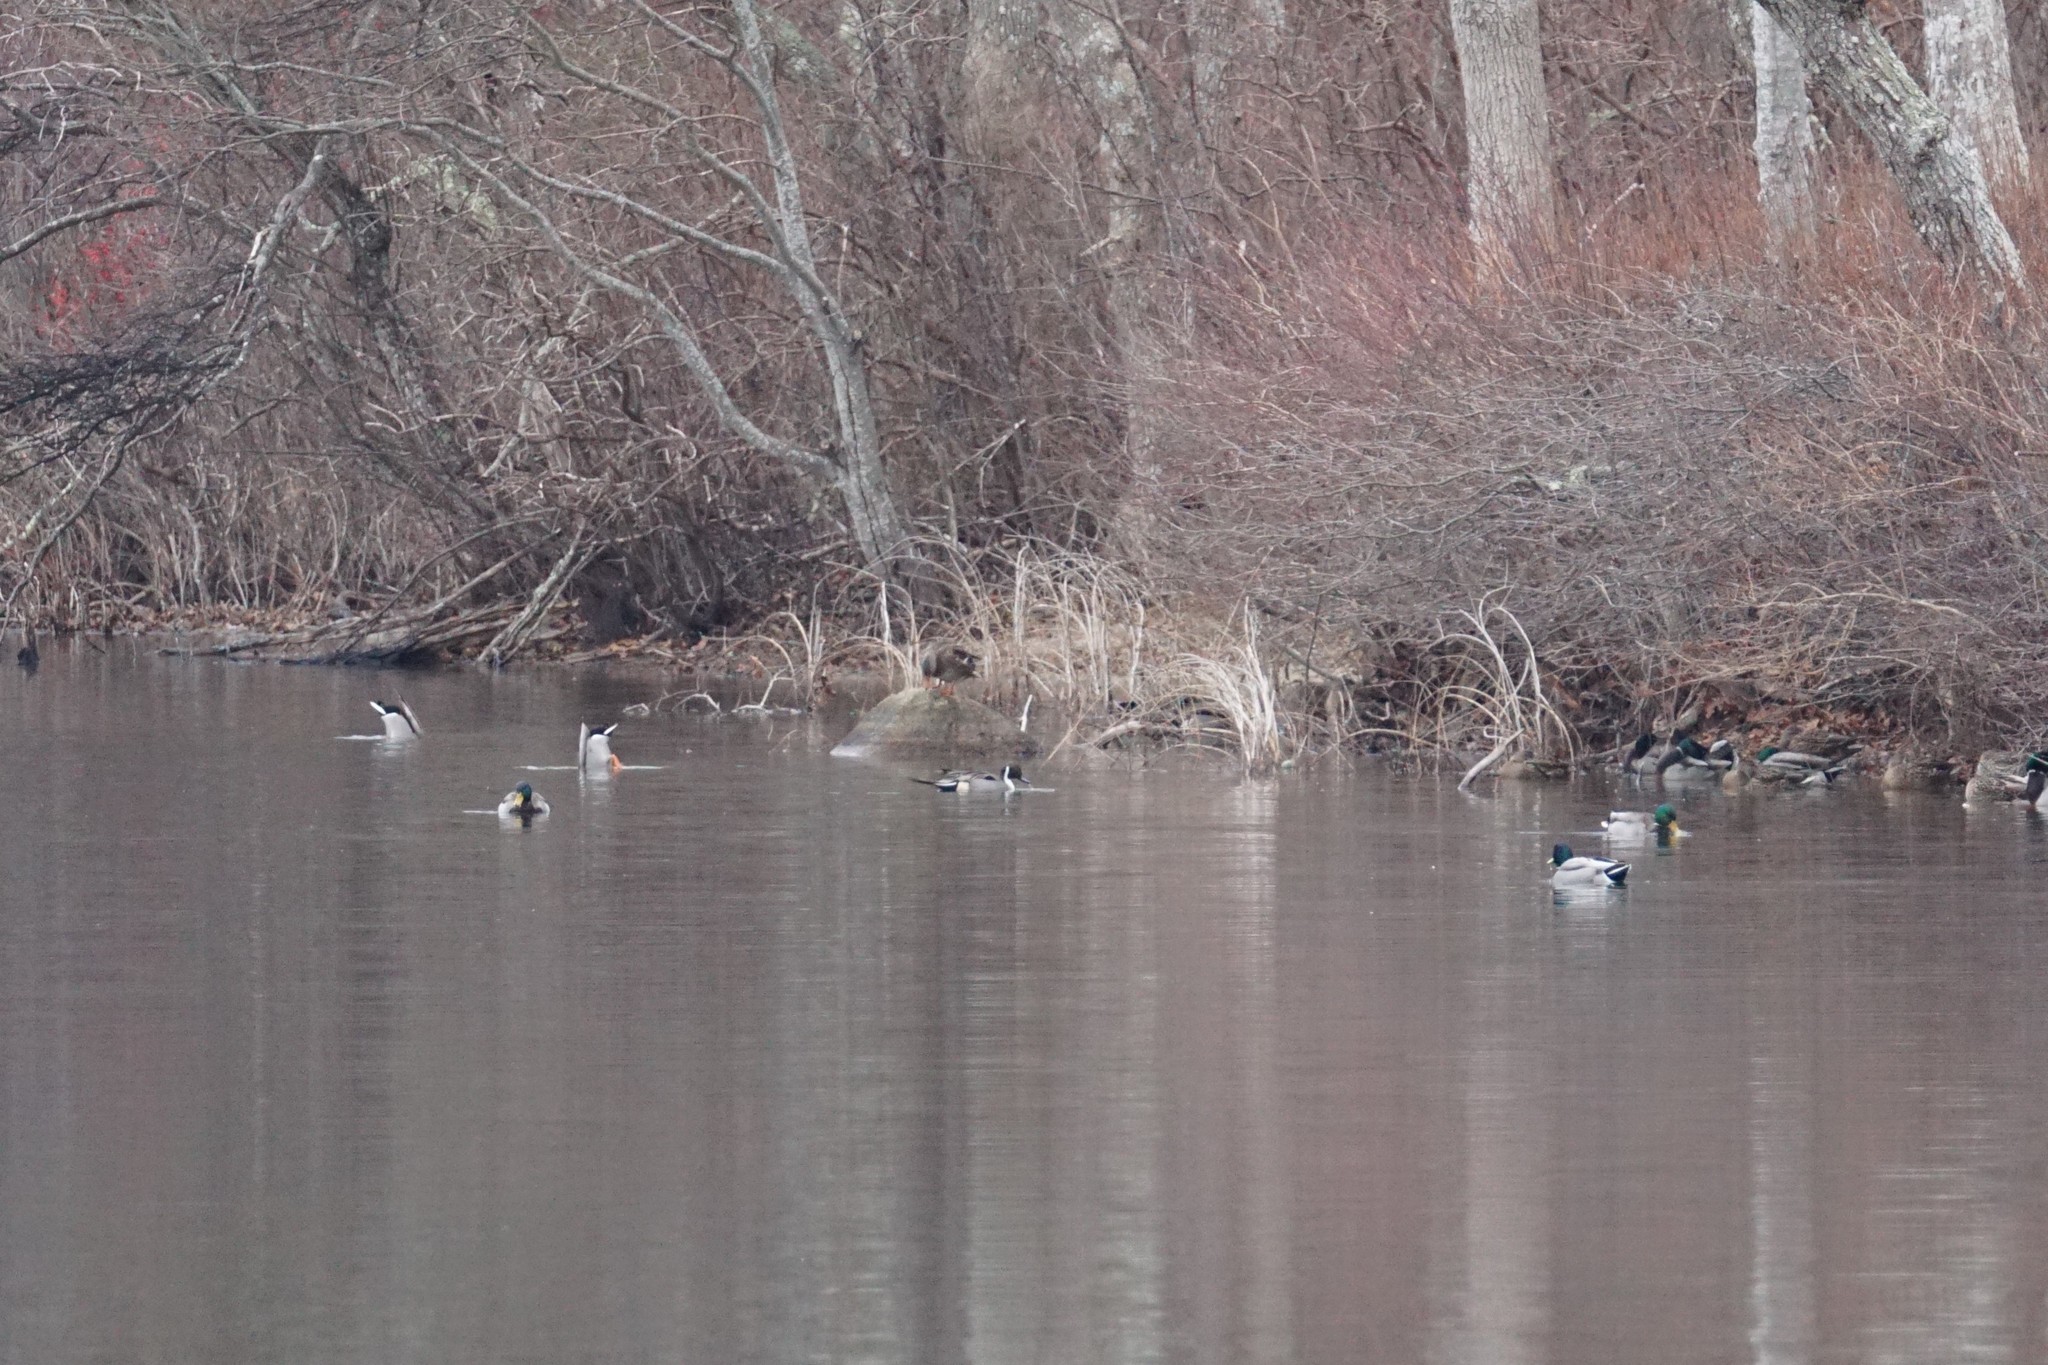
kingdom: Animalia
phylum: Chordata
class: Aves
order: Anseriformes
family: Anatidae
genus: Anas
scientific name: Anas acuta
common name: Northern pintail
